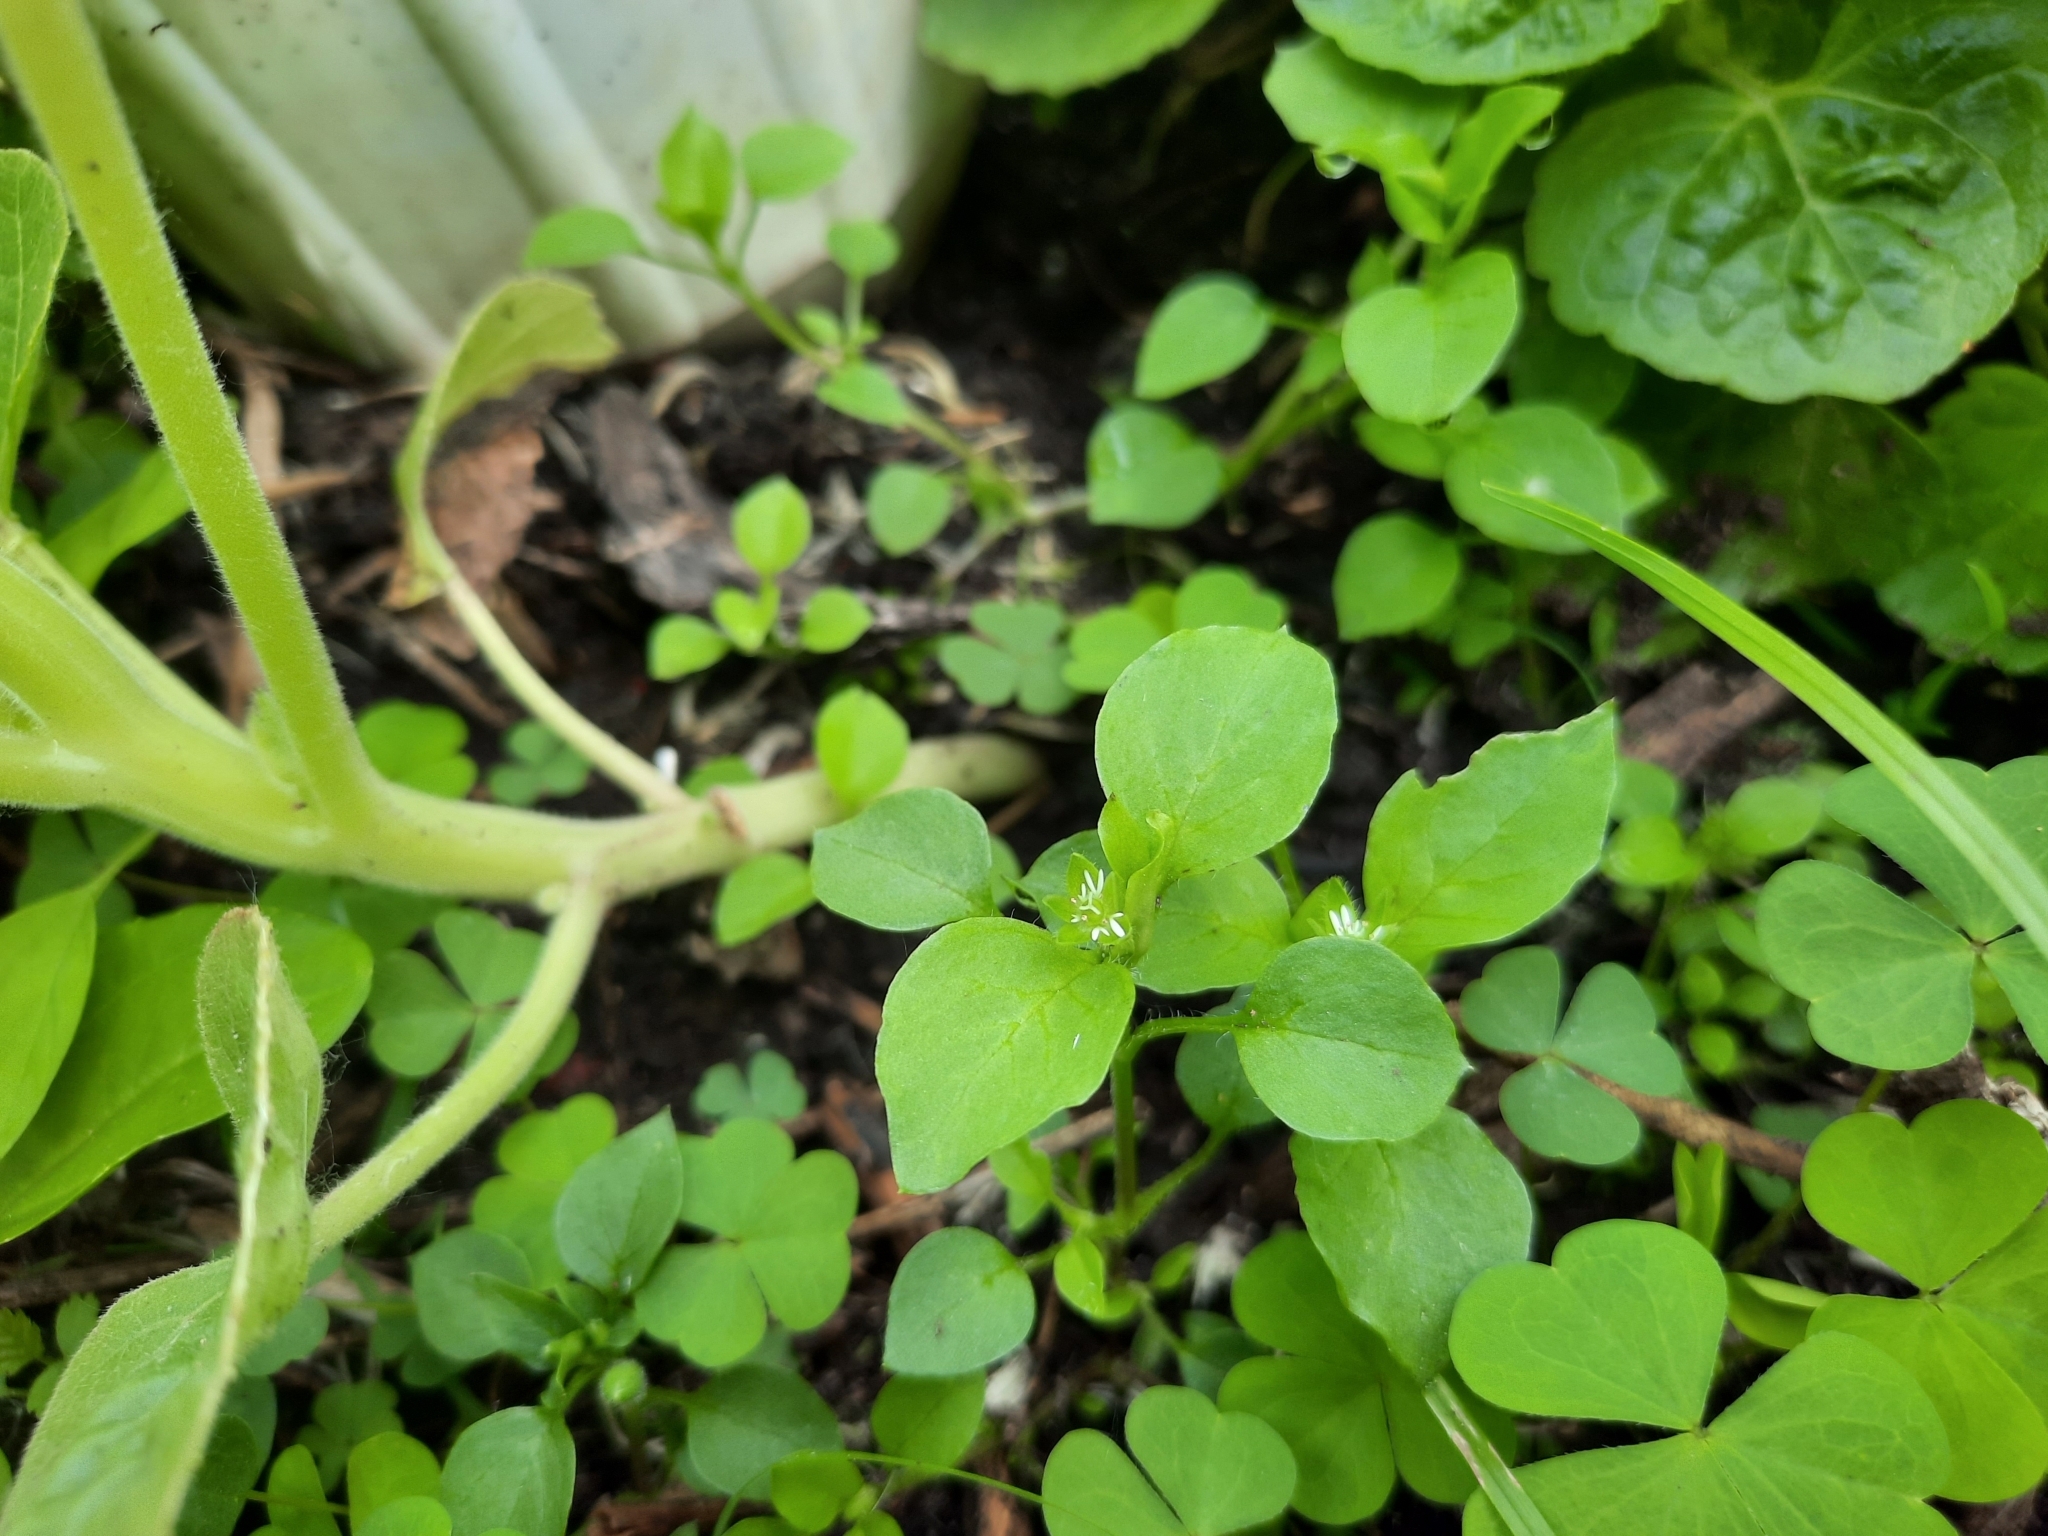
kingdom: Plantae
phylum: Tracheophyta
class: Magnoliopsida
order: Caryophyllales
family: Caryophyllaceae
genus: Stellaria
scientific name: Stellaria media
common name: Common chickweed
